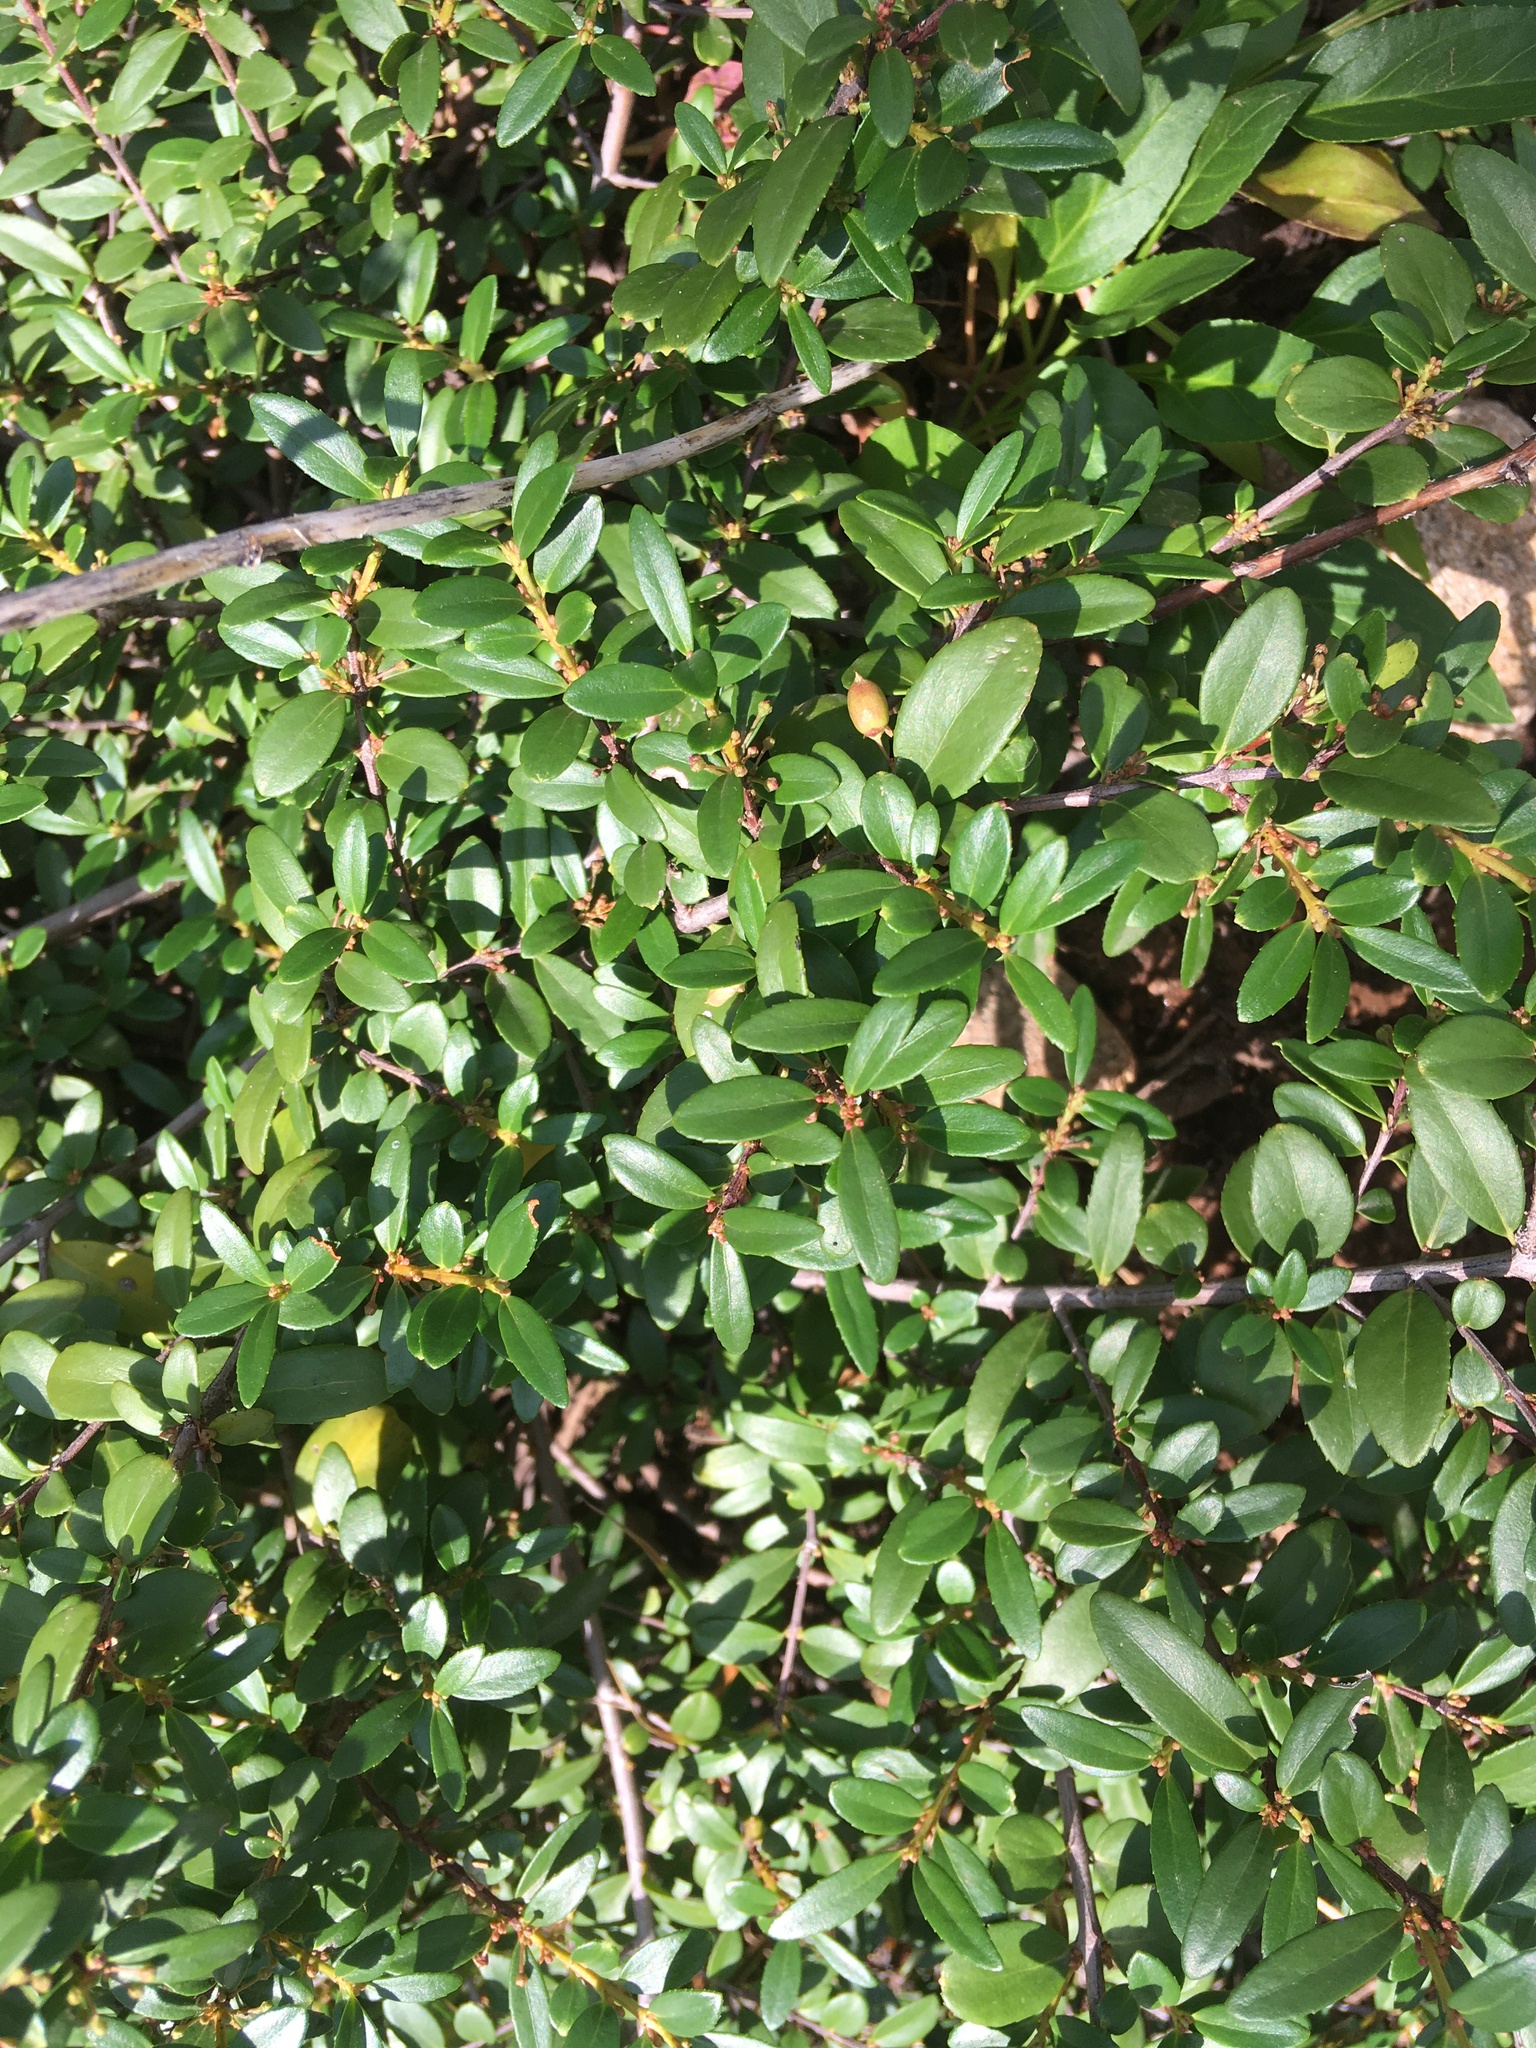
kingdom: Plantae
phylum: Tracheophyta
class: Magnoliopsida
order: Celastrales
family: Celastraceae
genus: Paxistima
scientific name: Paxistima myrsinites
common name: Mountain-lover
